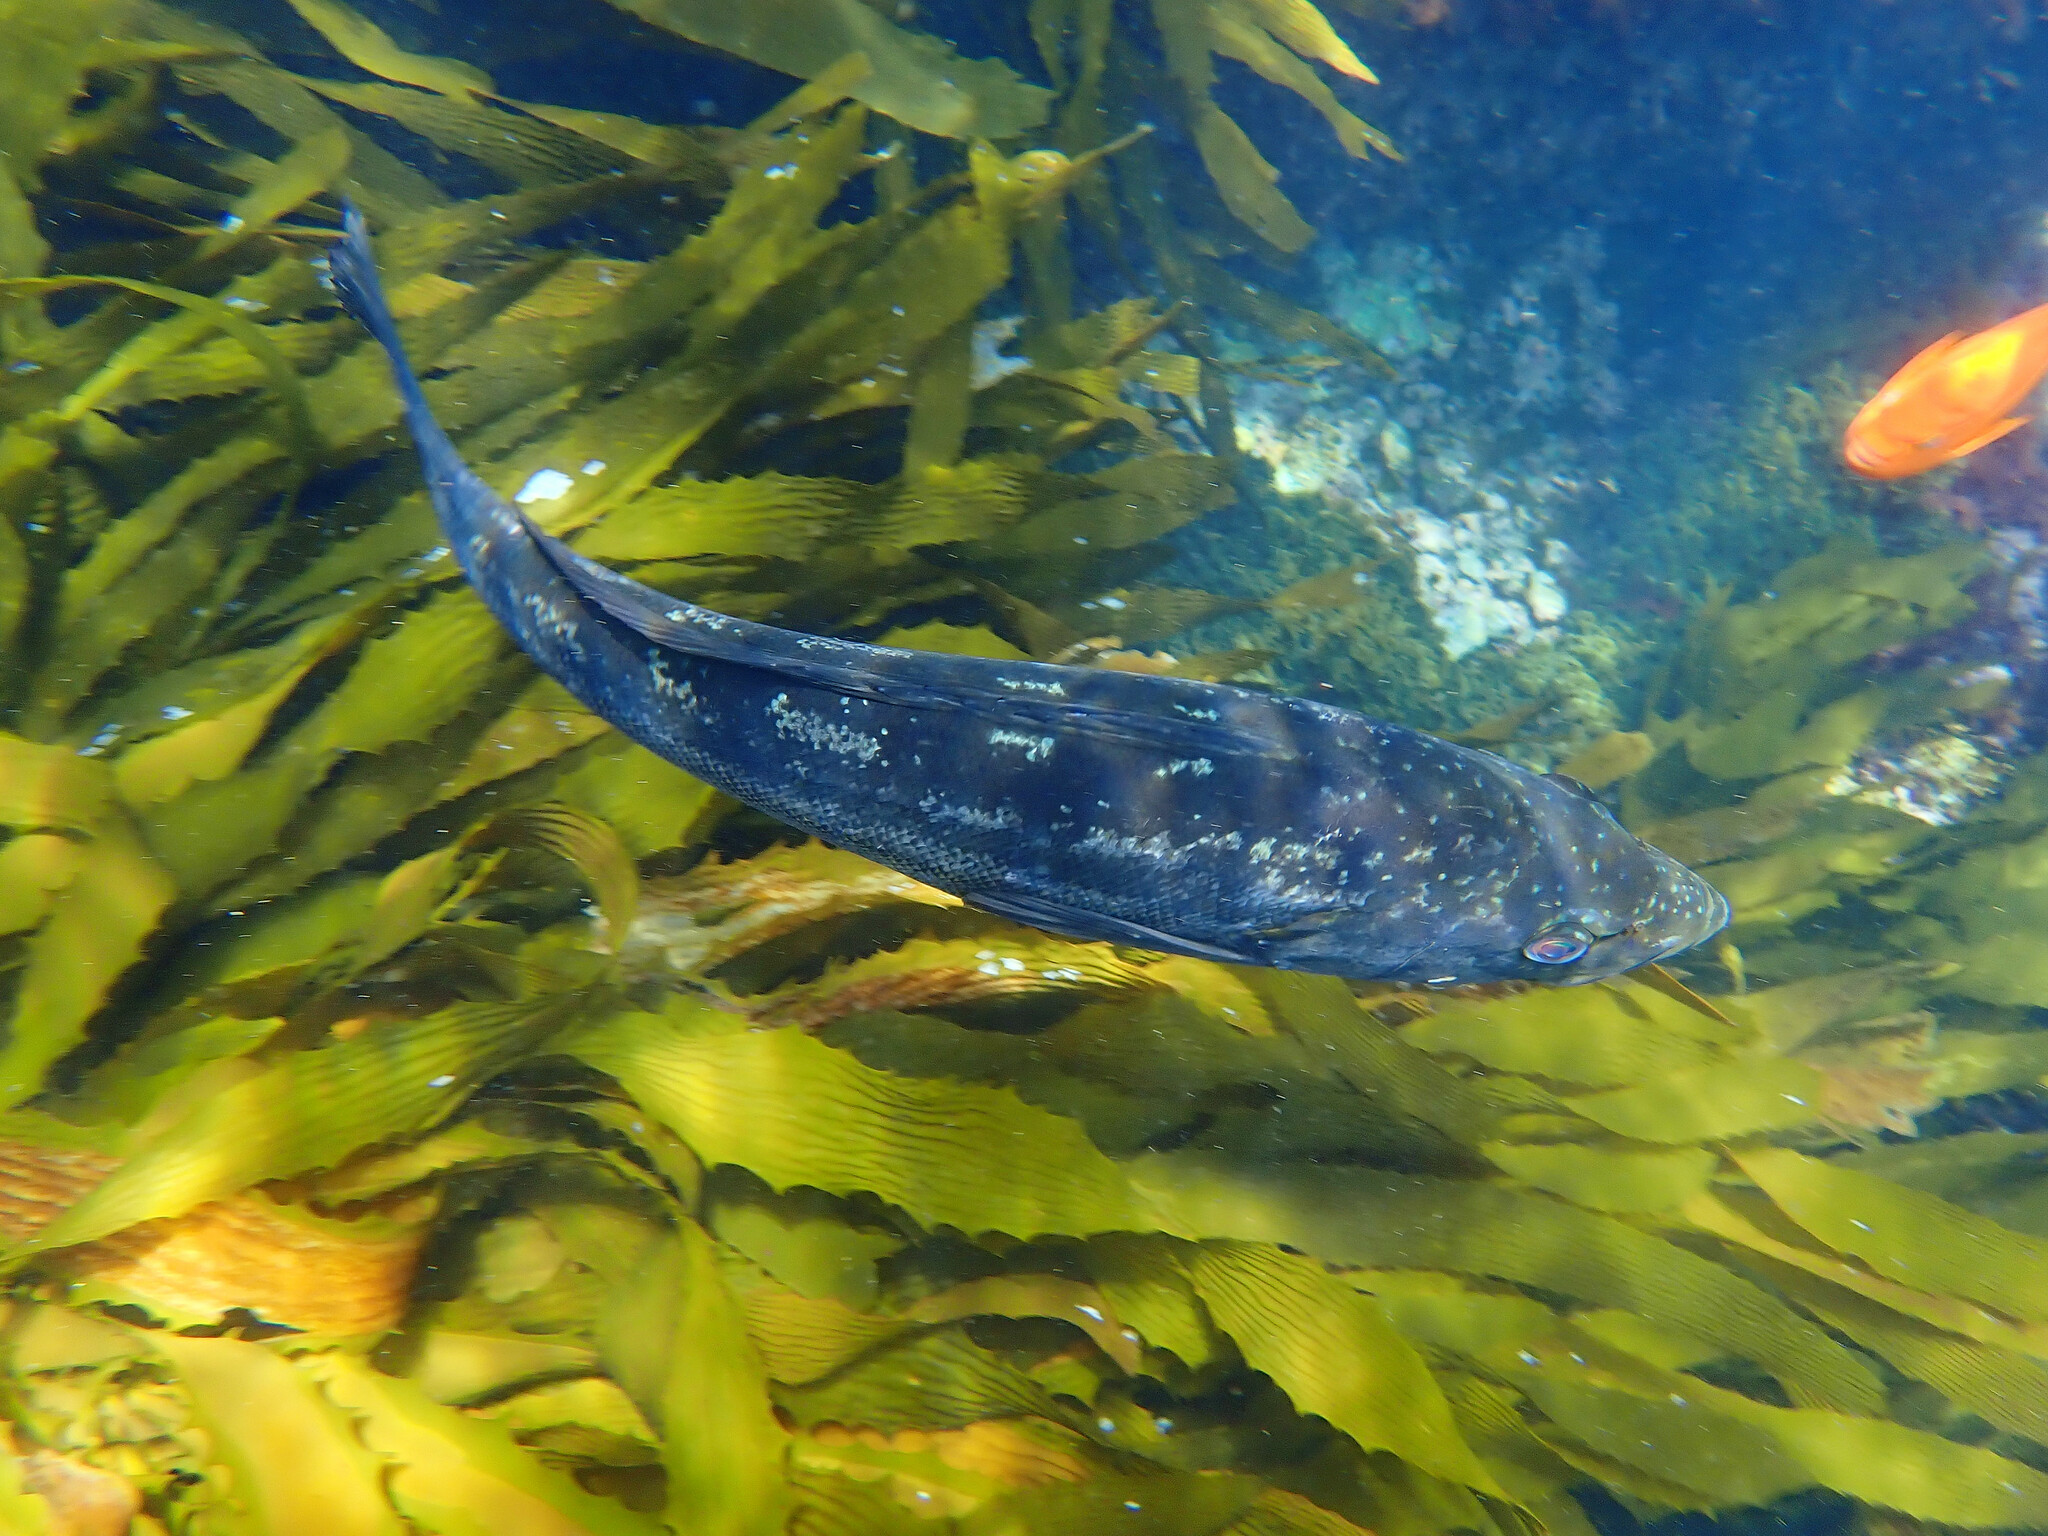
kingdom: Animalia
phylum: Chordata
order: Perciformes
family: Serranidae
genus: Paralabrax
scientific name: Paralabrax clathratus
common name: Kelp bass
